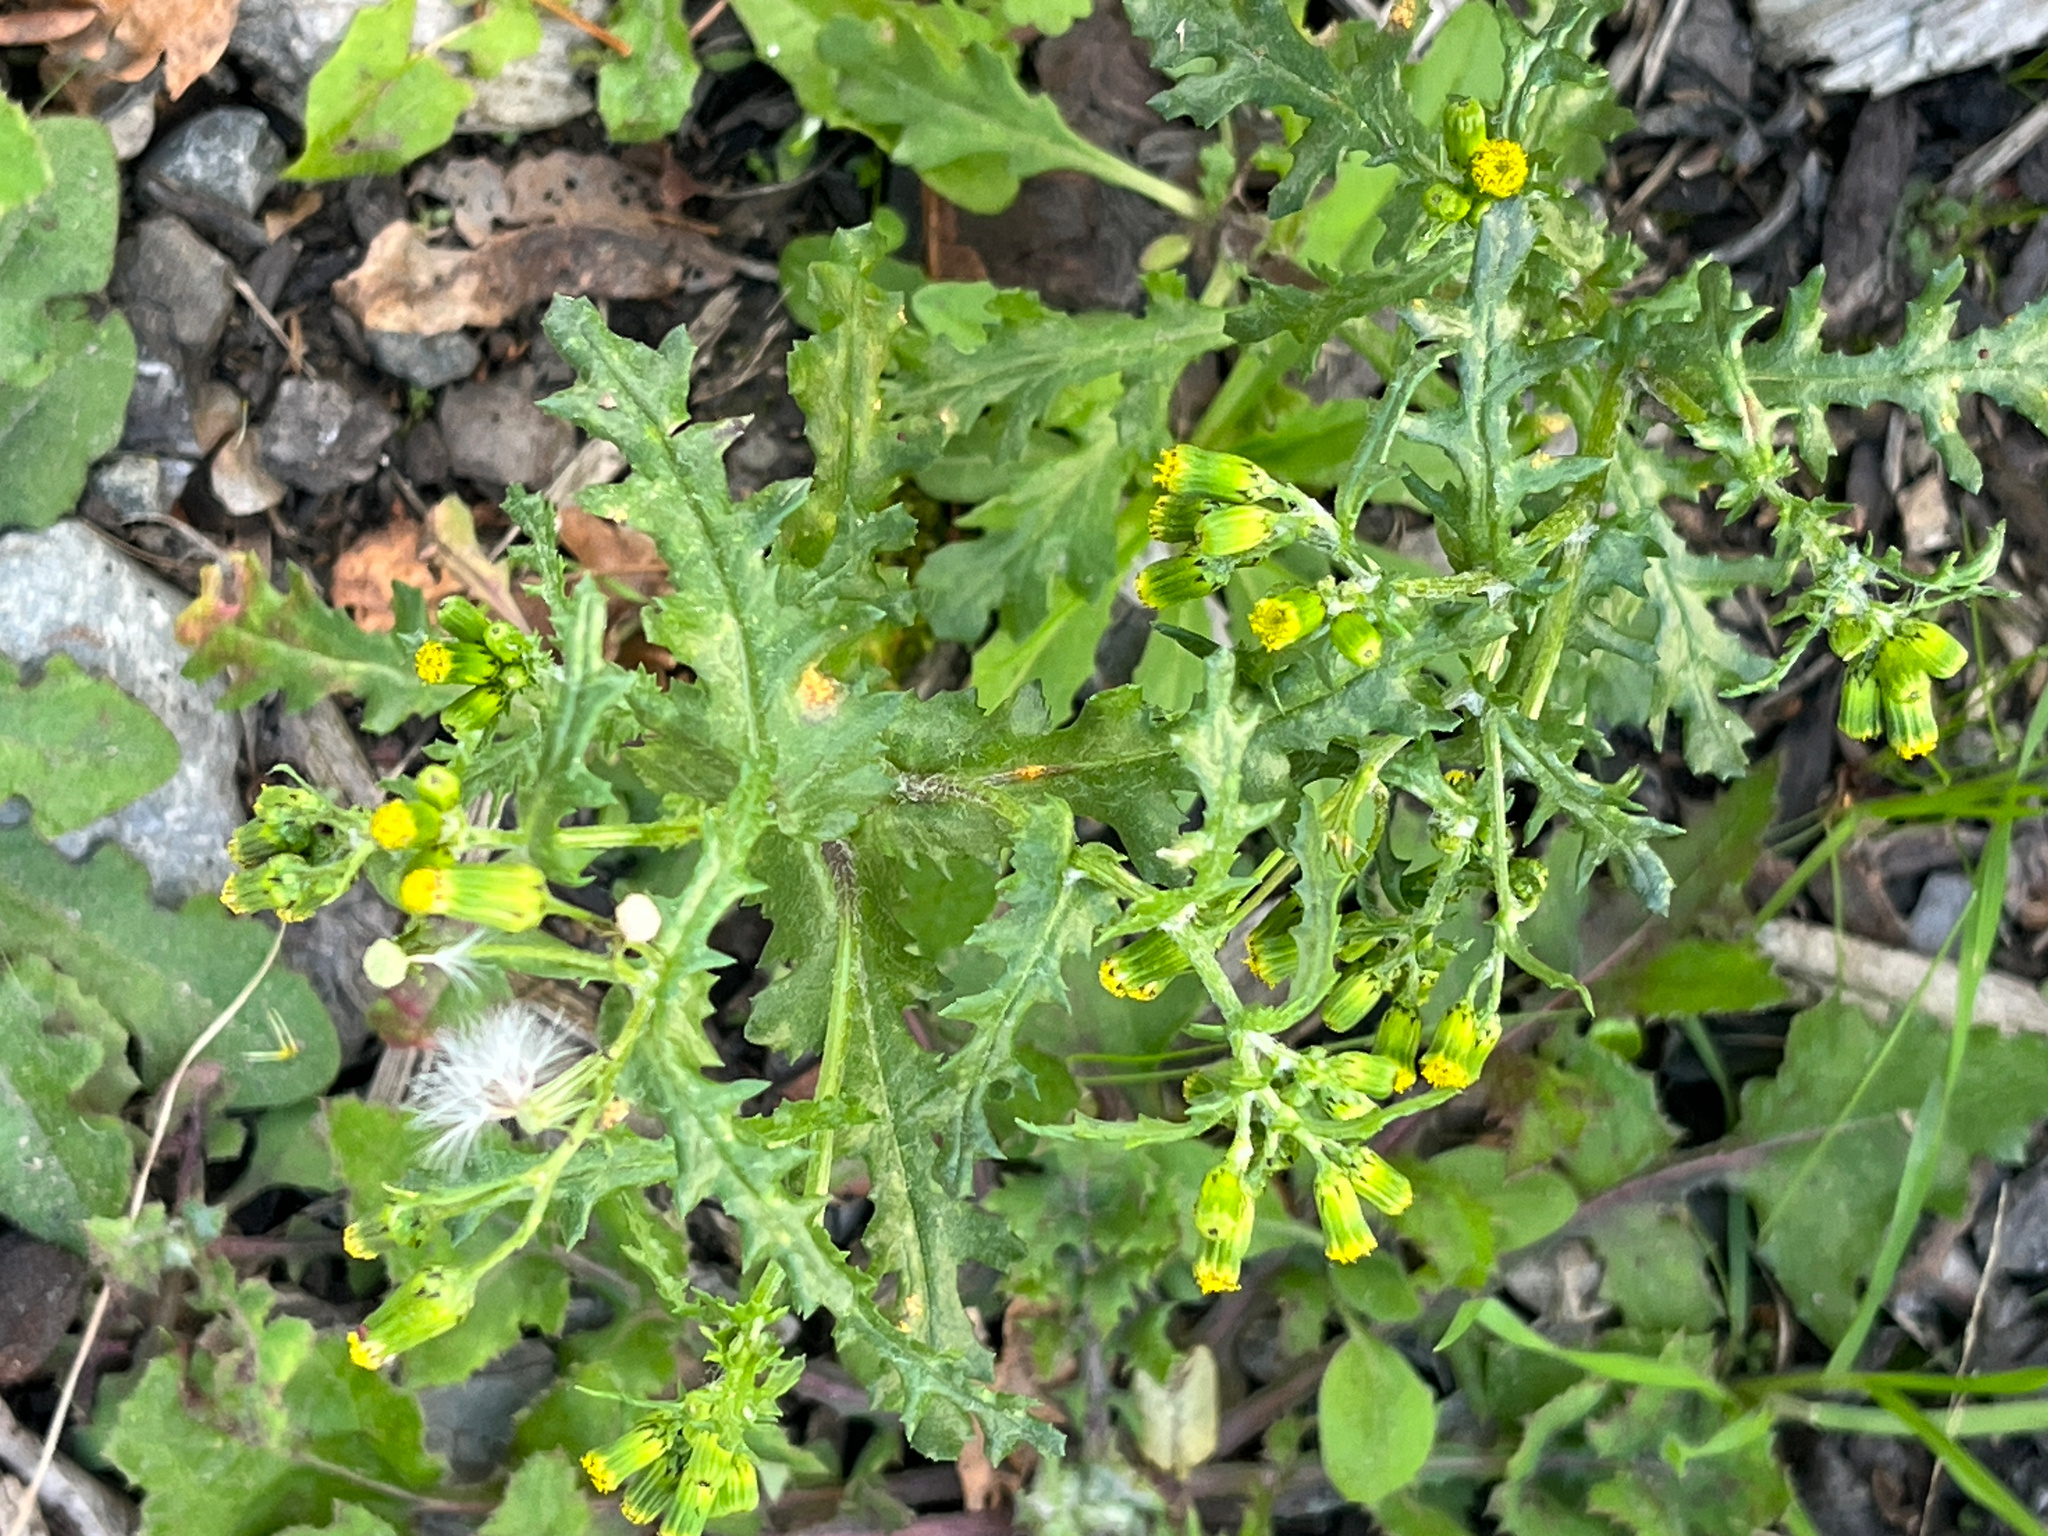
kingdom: Plantae
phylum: Tracheophyta
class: Magnoliopsida
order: Asterales
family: Asteraceae
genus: Senecio
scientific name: Senecio vulgaris
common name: Old-man-in-the-spring
